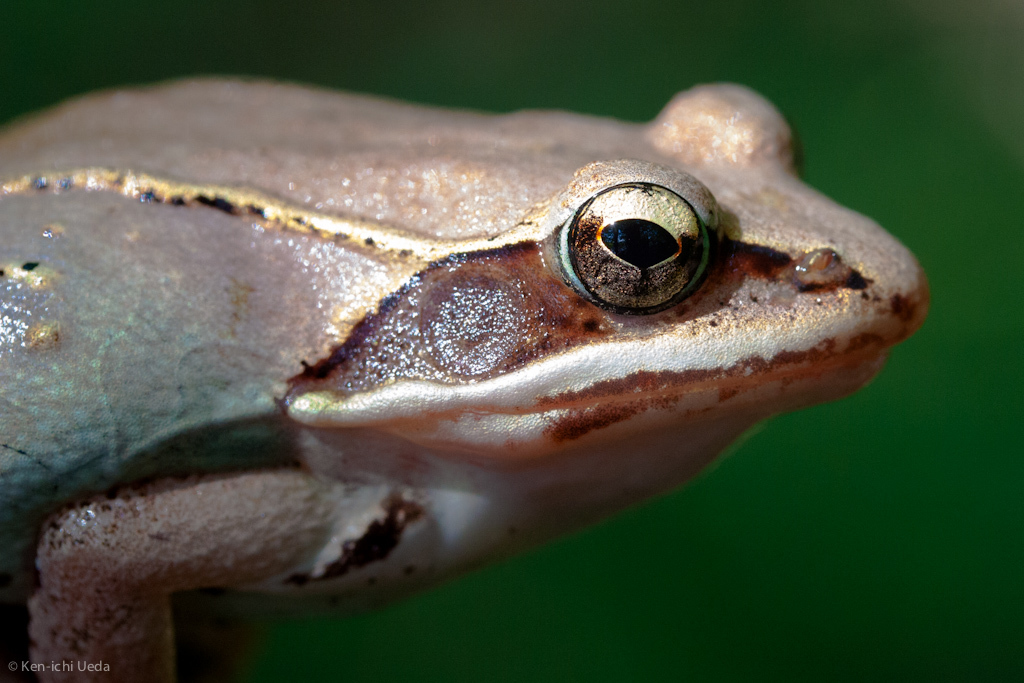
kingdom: Animalia
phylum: Chordata
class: Amphibia
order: Anura
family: Ranidae
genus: Lithobates
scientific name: Lithobates sylvaticus
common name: Wood frog
